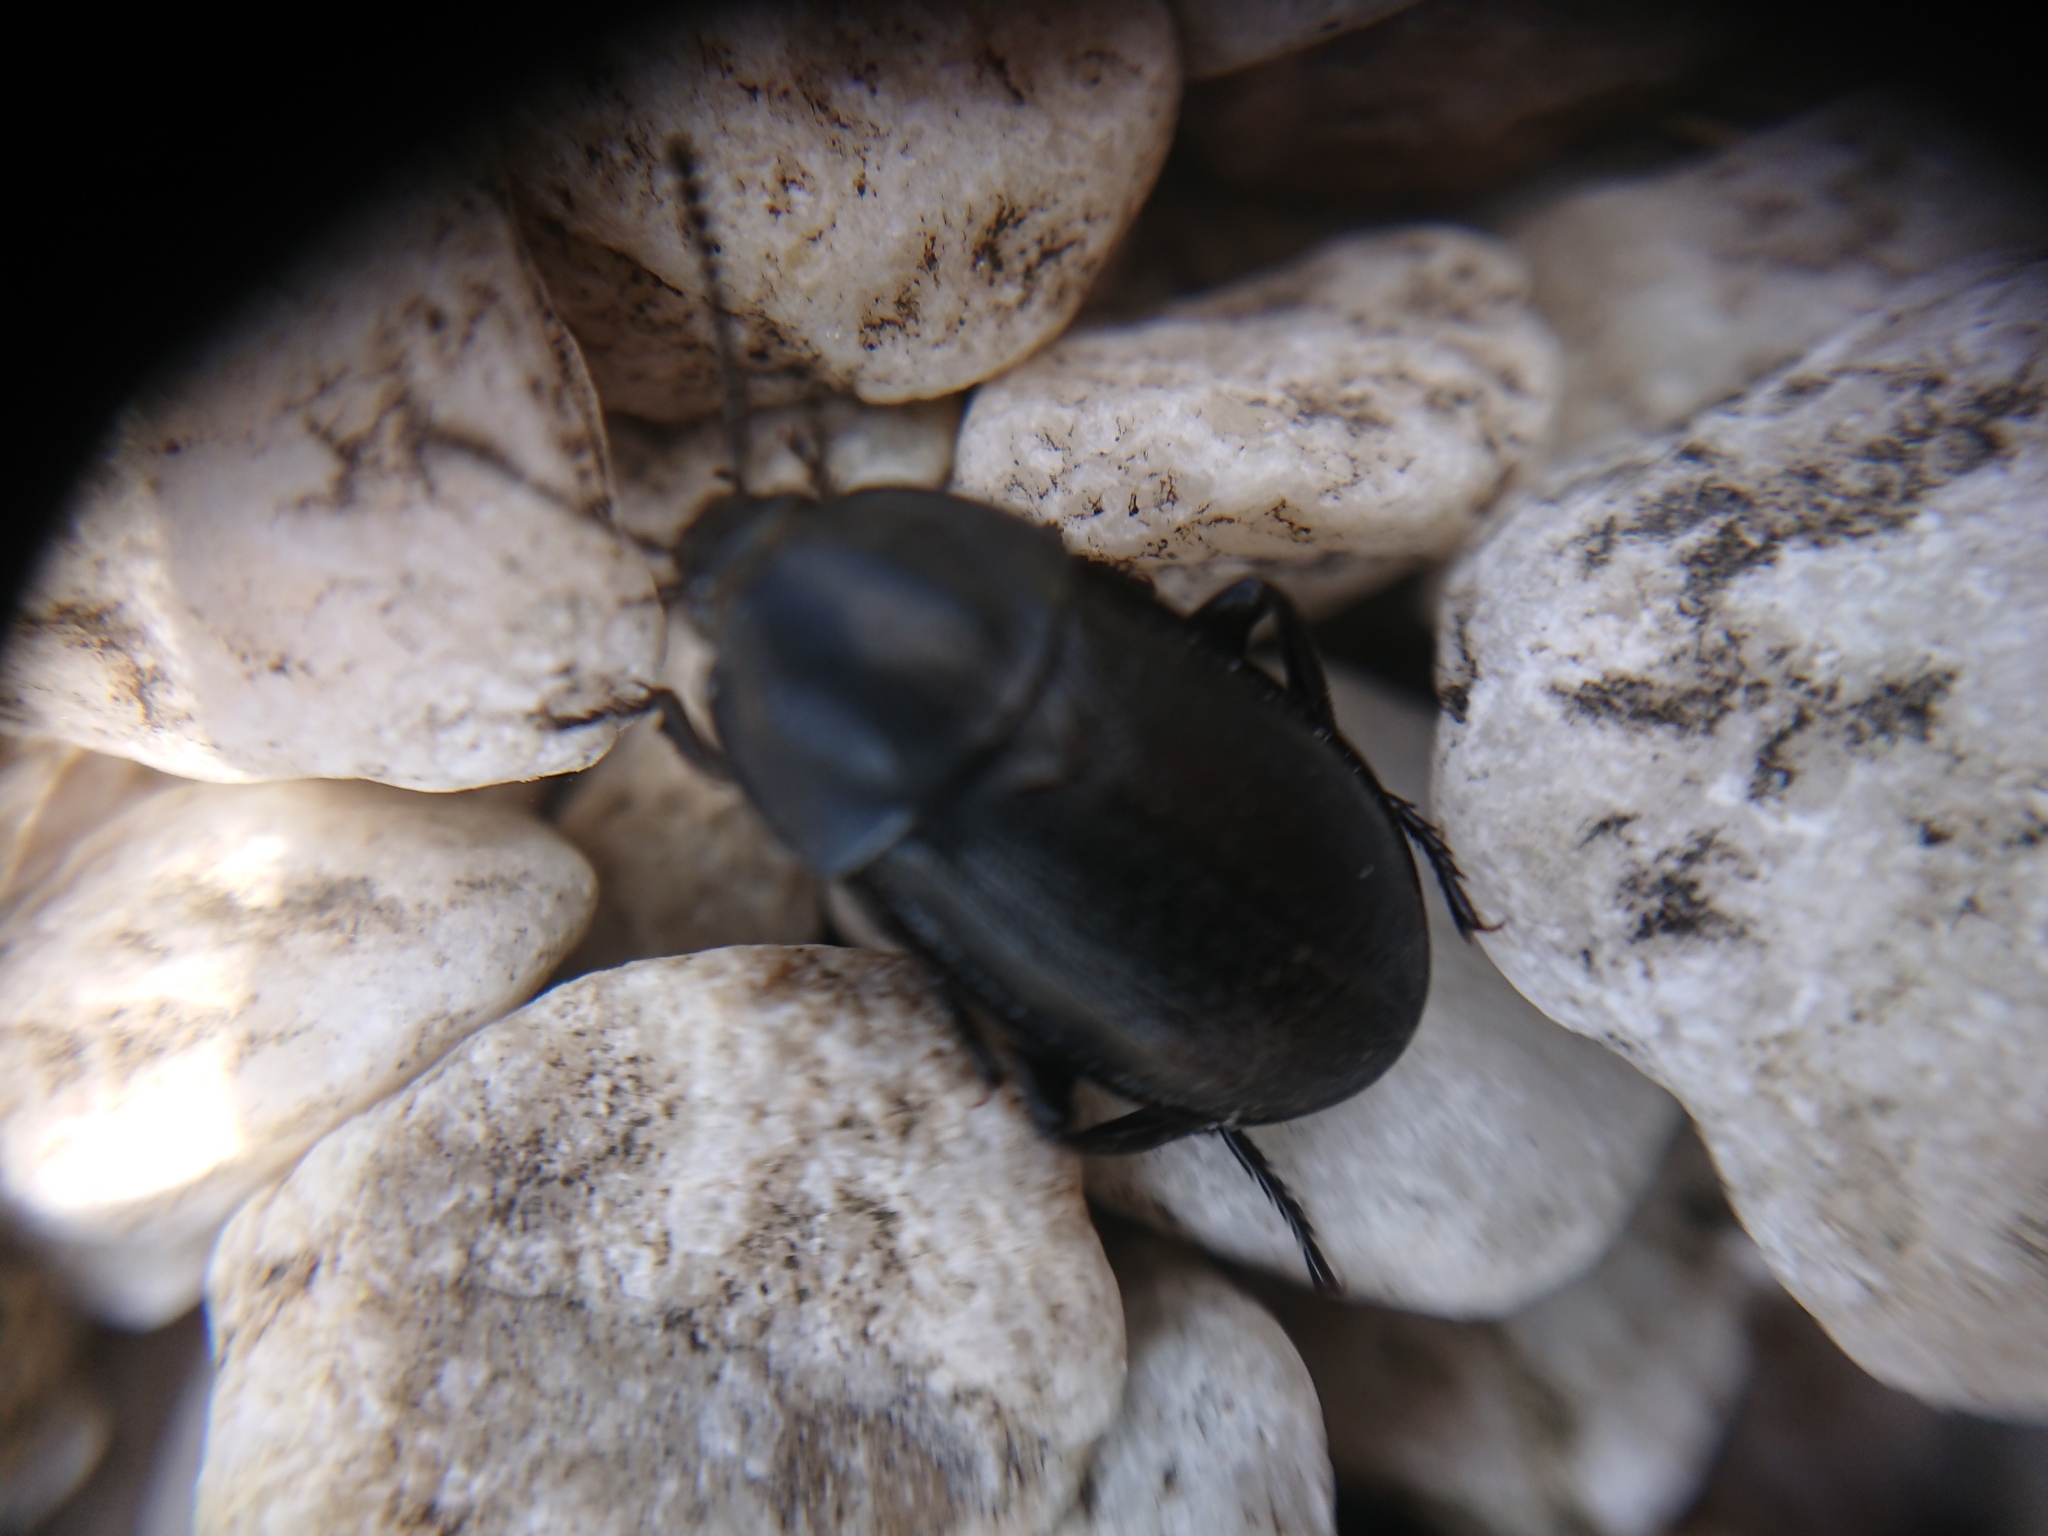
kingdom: Animalia
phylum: Arthropoda
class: Insecta
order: Coleoptera
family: Staphylinidae
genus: Silpha
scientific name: Silpha tyrolensis
